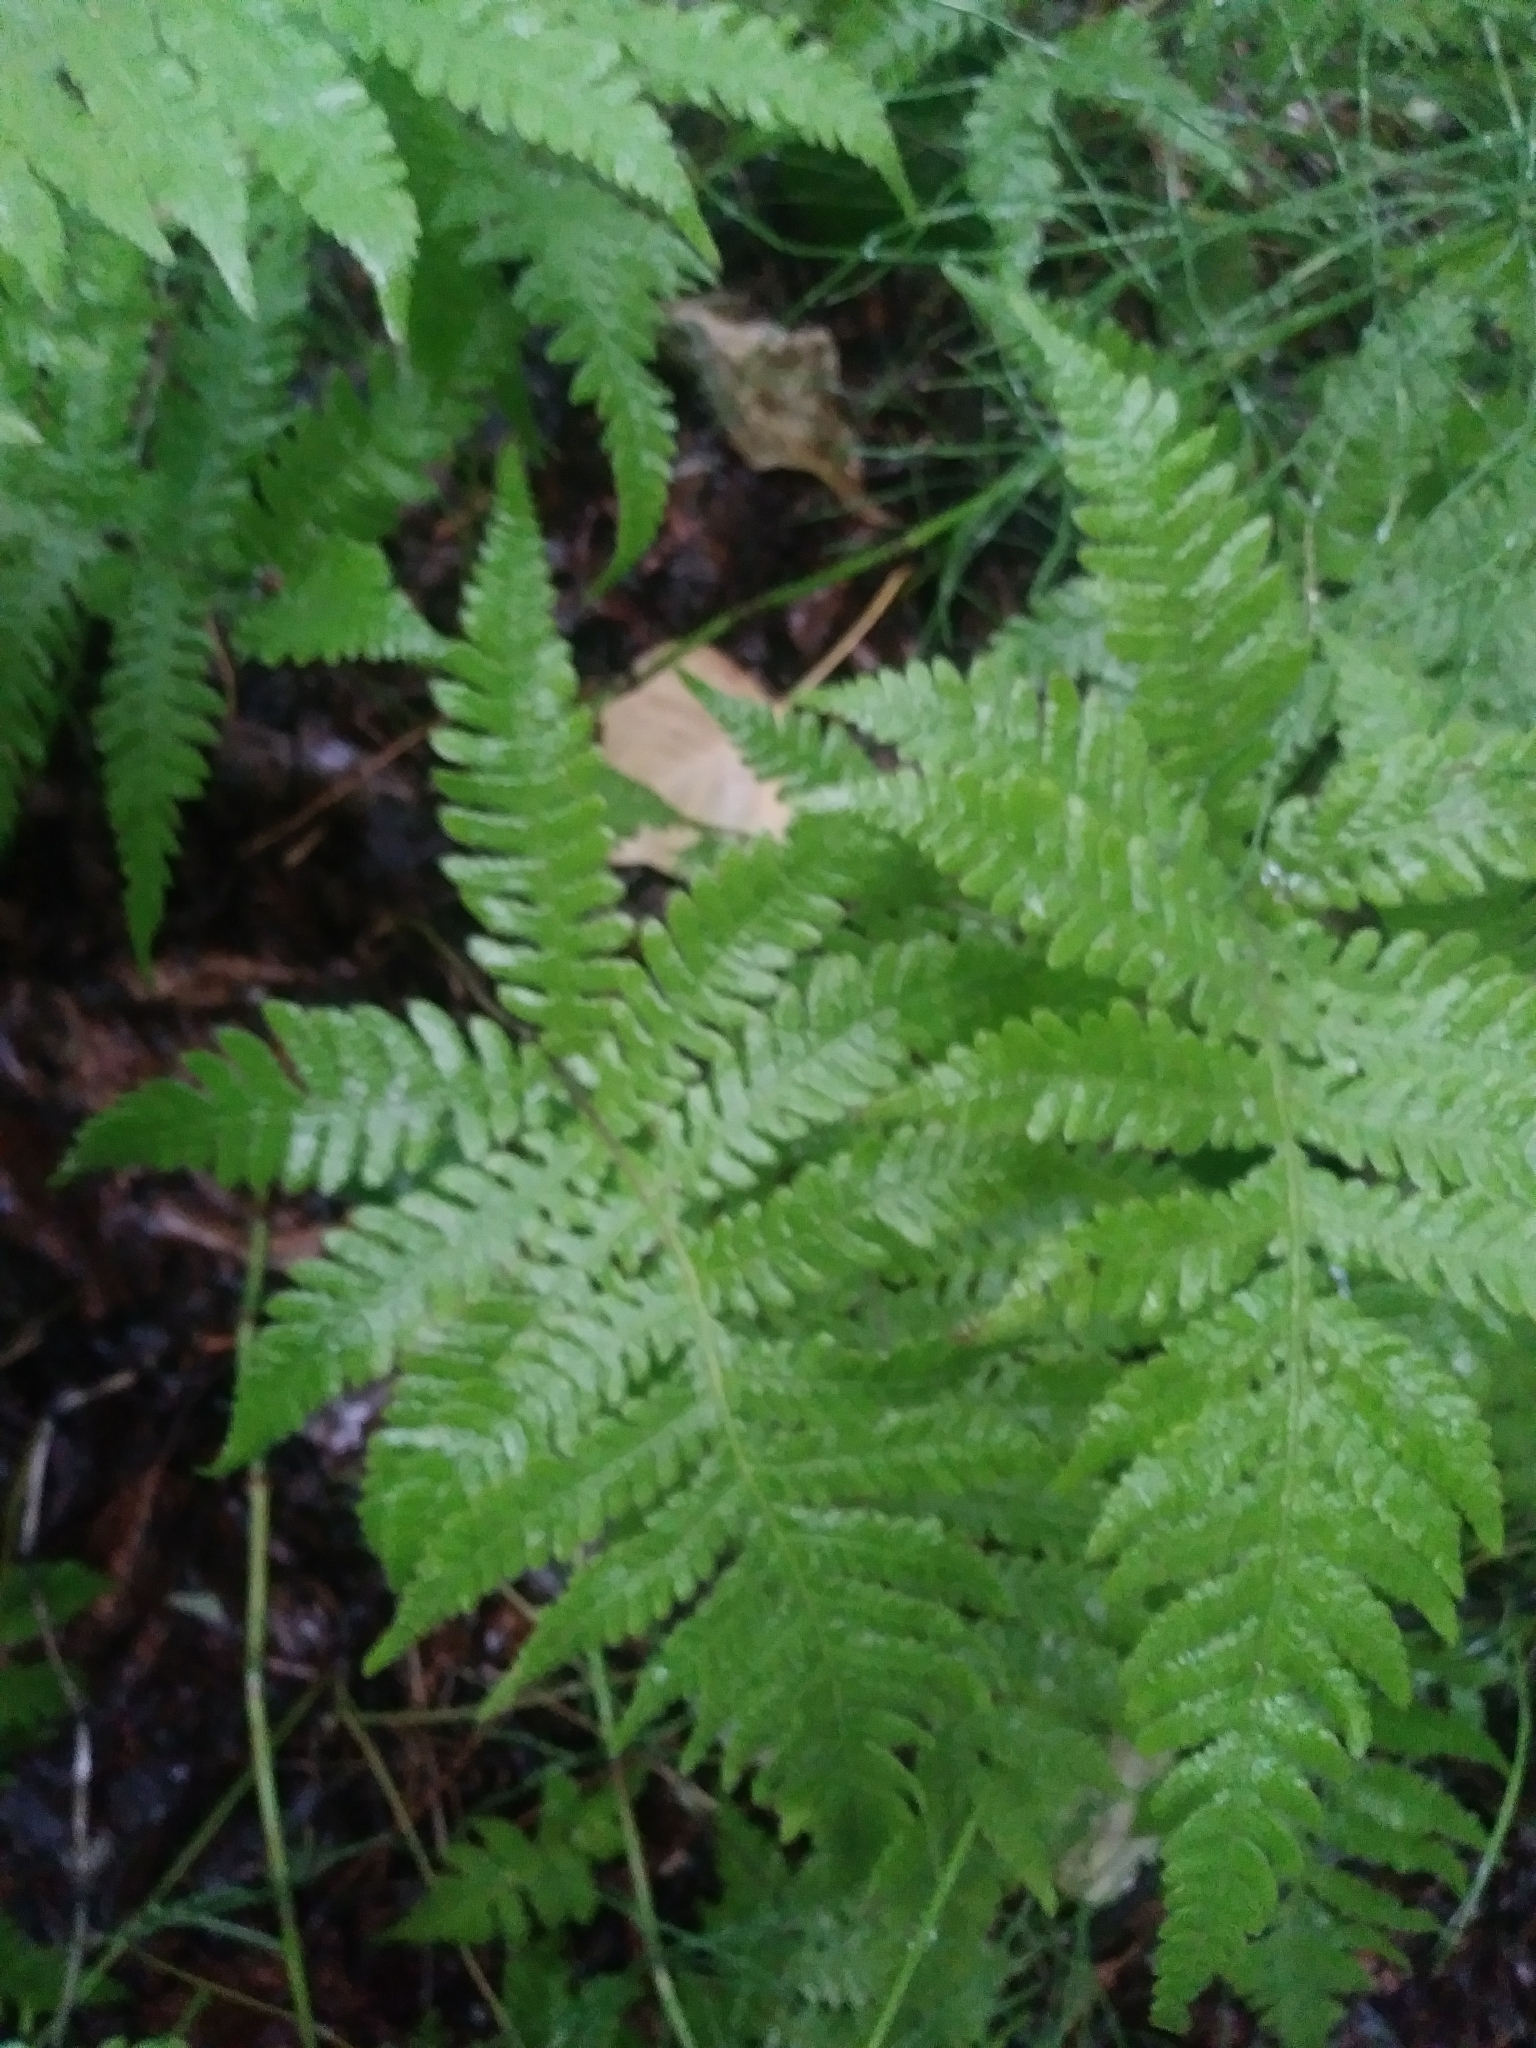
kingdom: Plantae
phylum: Tracheophyta
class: Polypodiopsida
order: Polypodiales
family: Thelypteridaceae
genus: Phegopteris
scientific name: Phegopteris connectilis
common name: Beech fern
